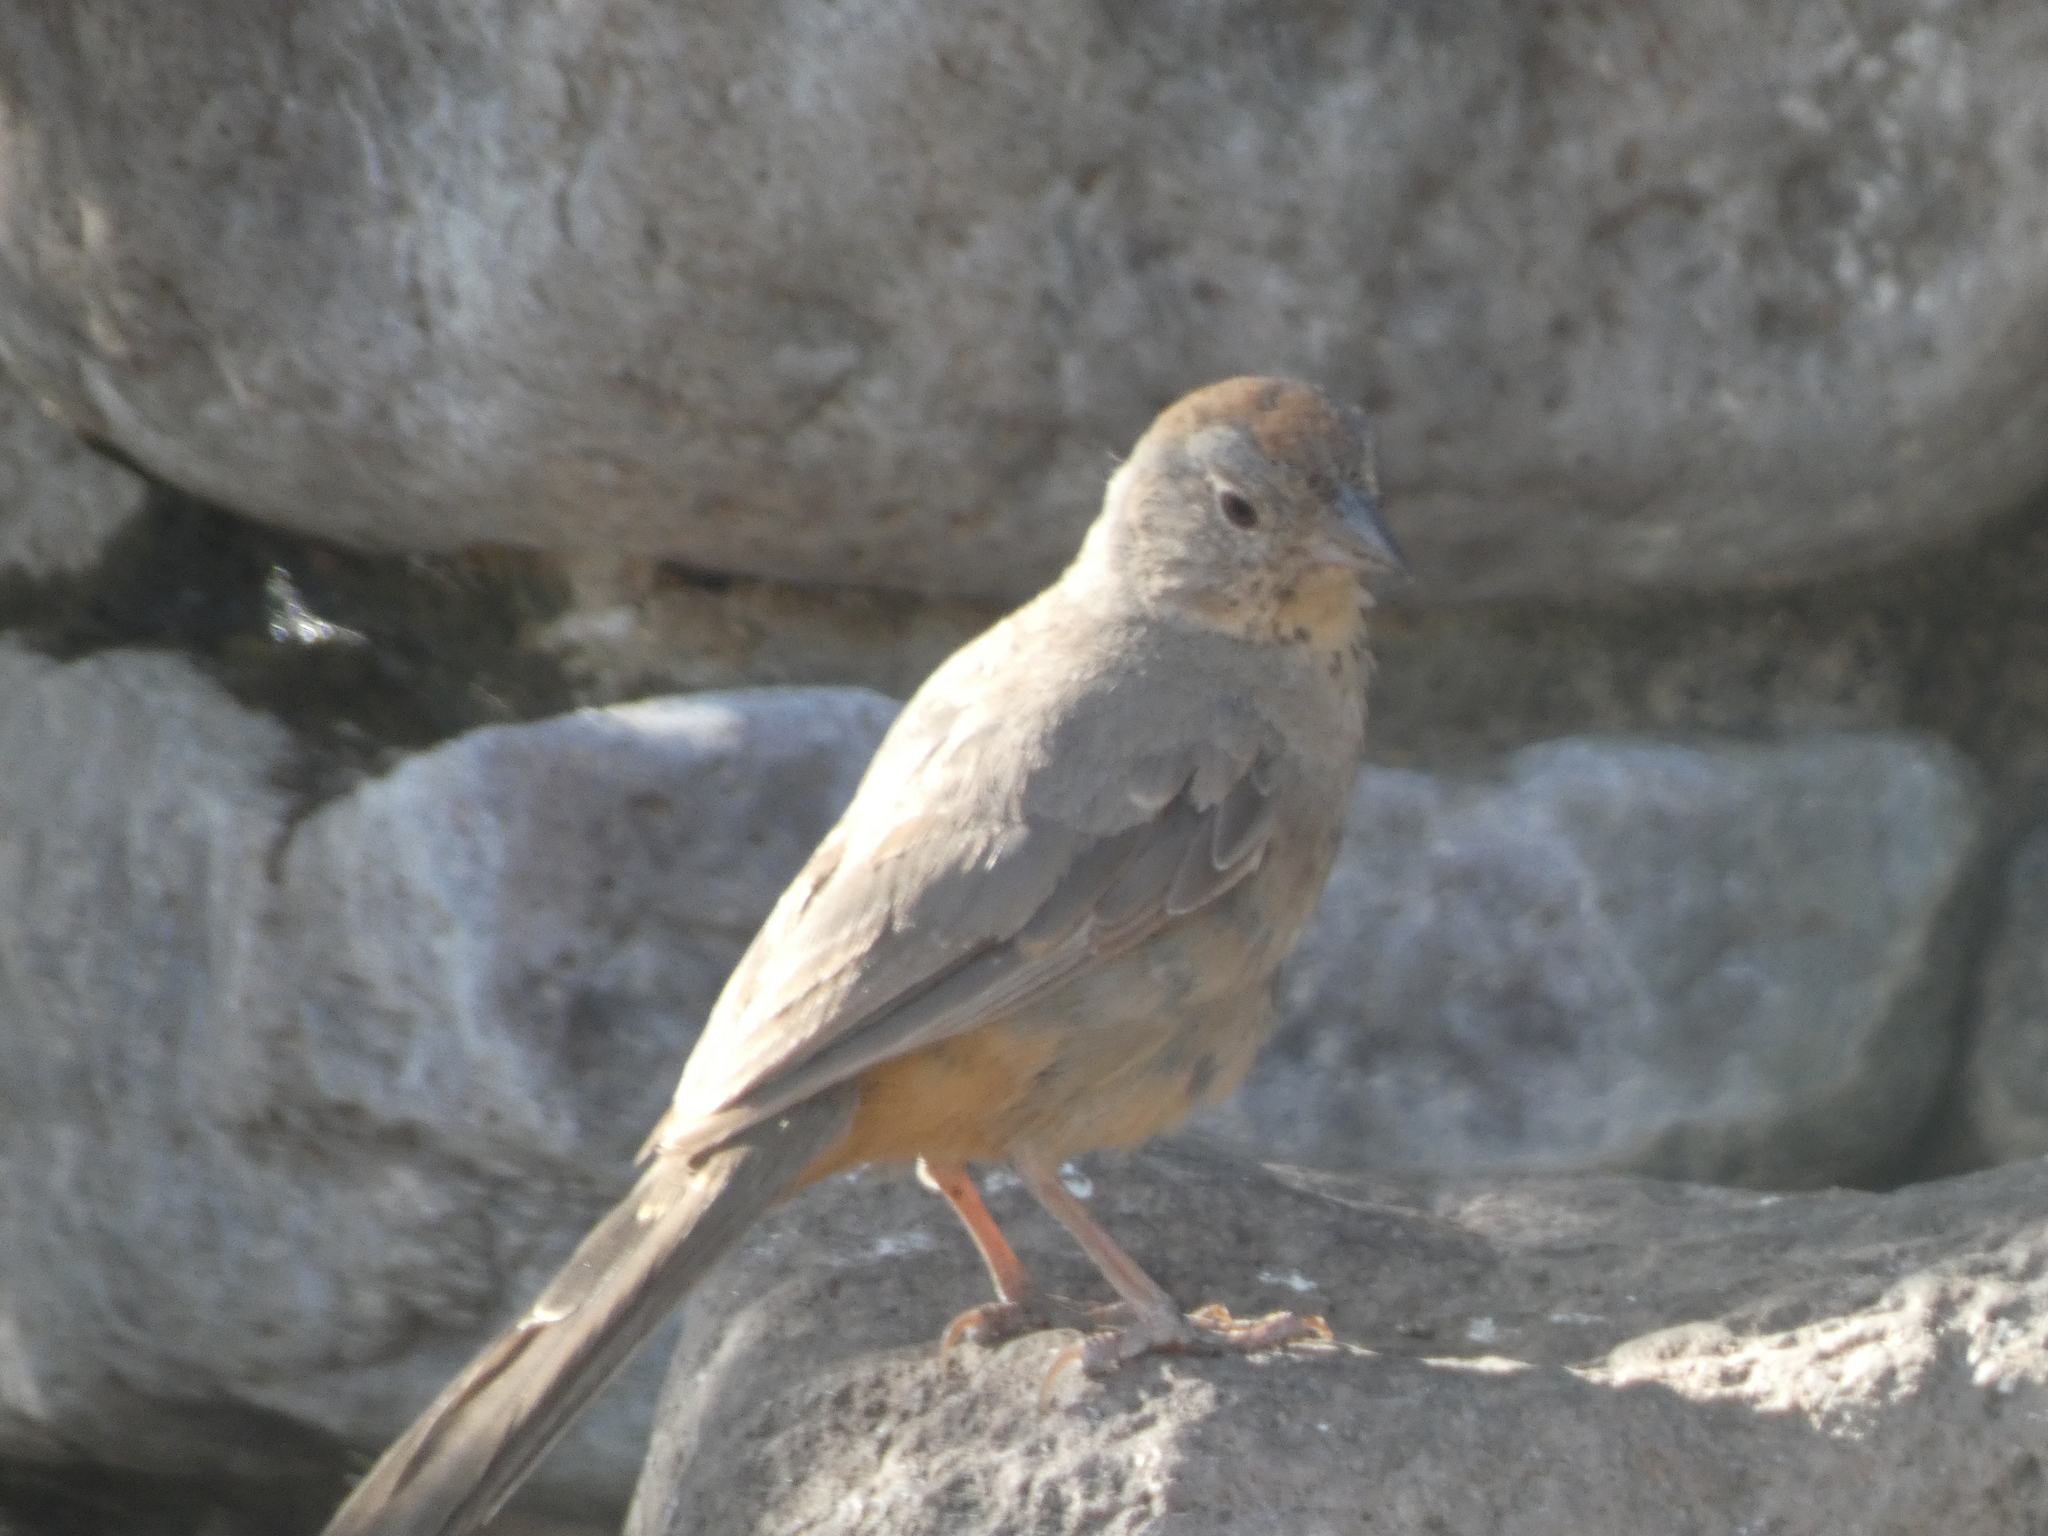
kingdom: Animalia
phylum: Chordata
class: Aves
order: Passeriformes
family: Passerellidae
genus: Melozone
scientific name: Melozone fusca
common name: Canyon towhee
